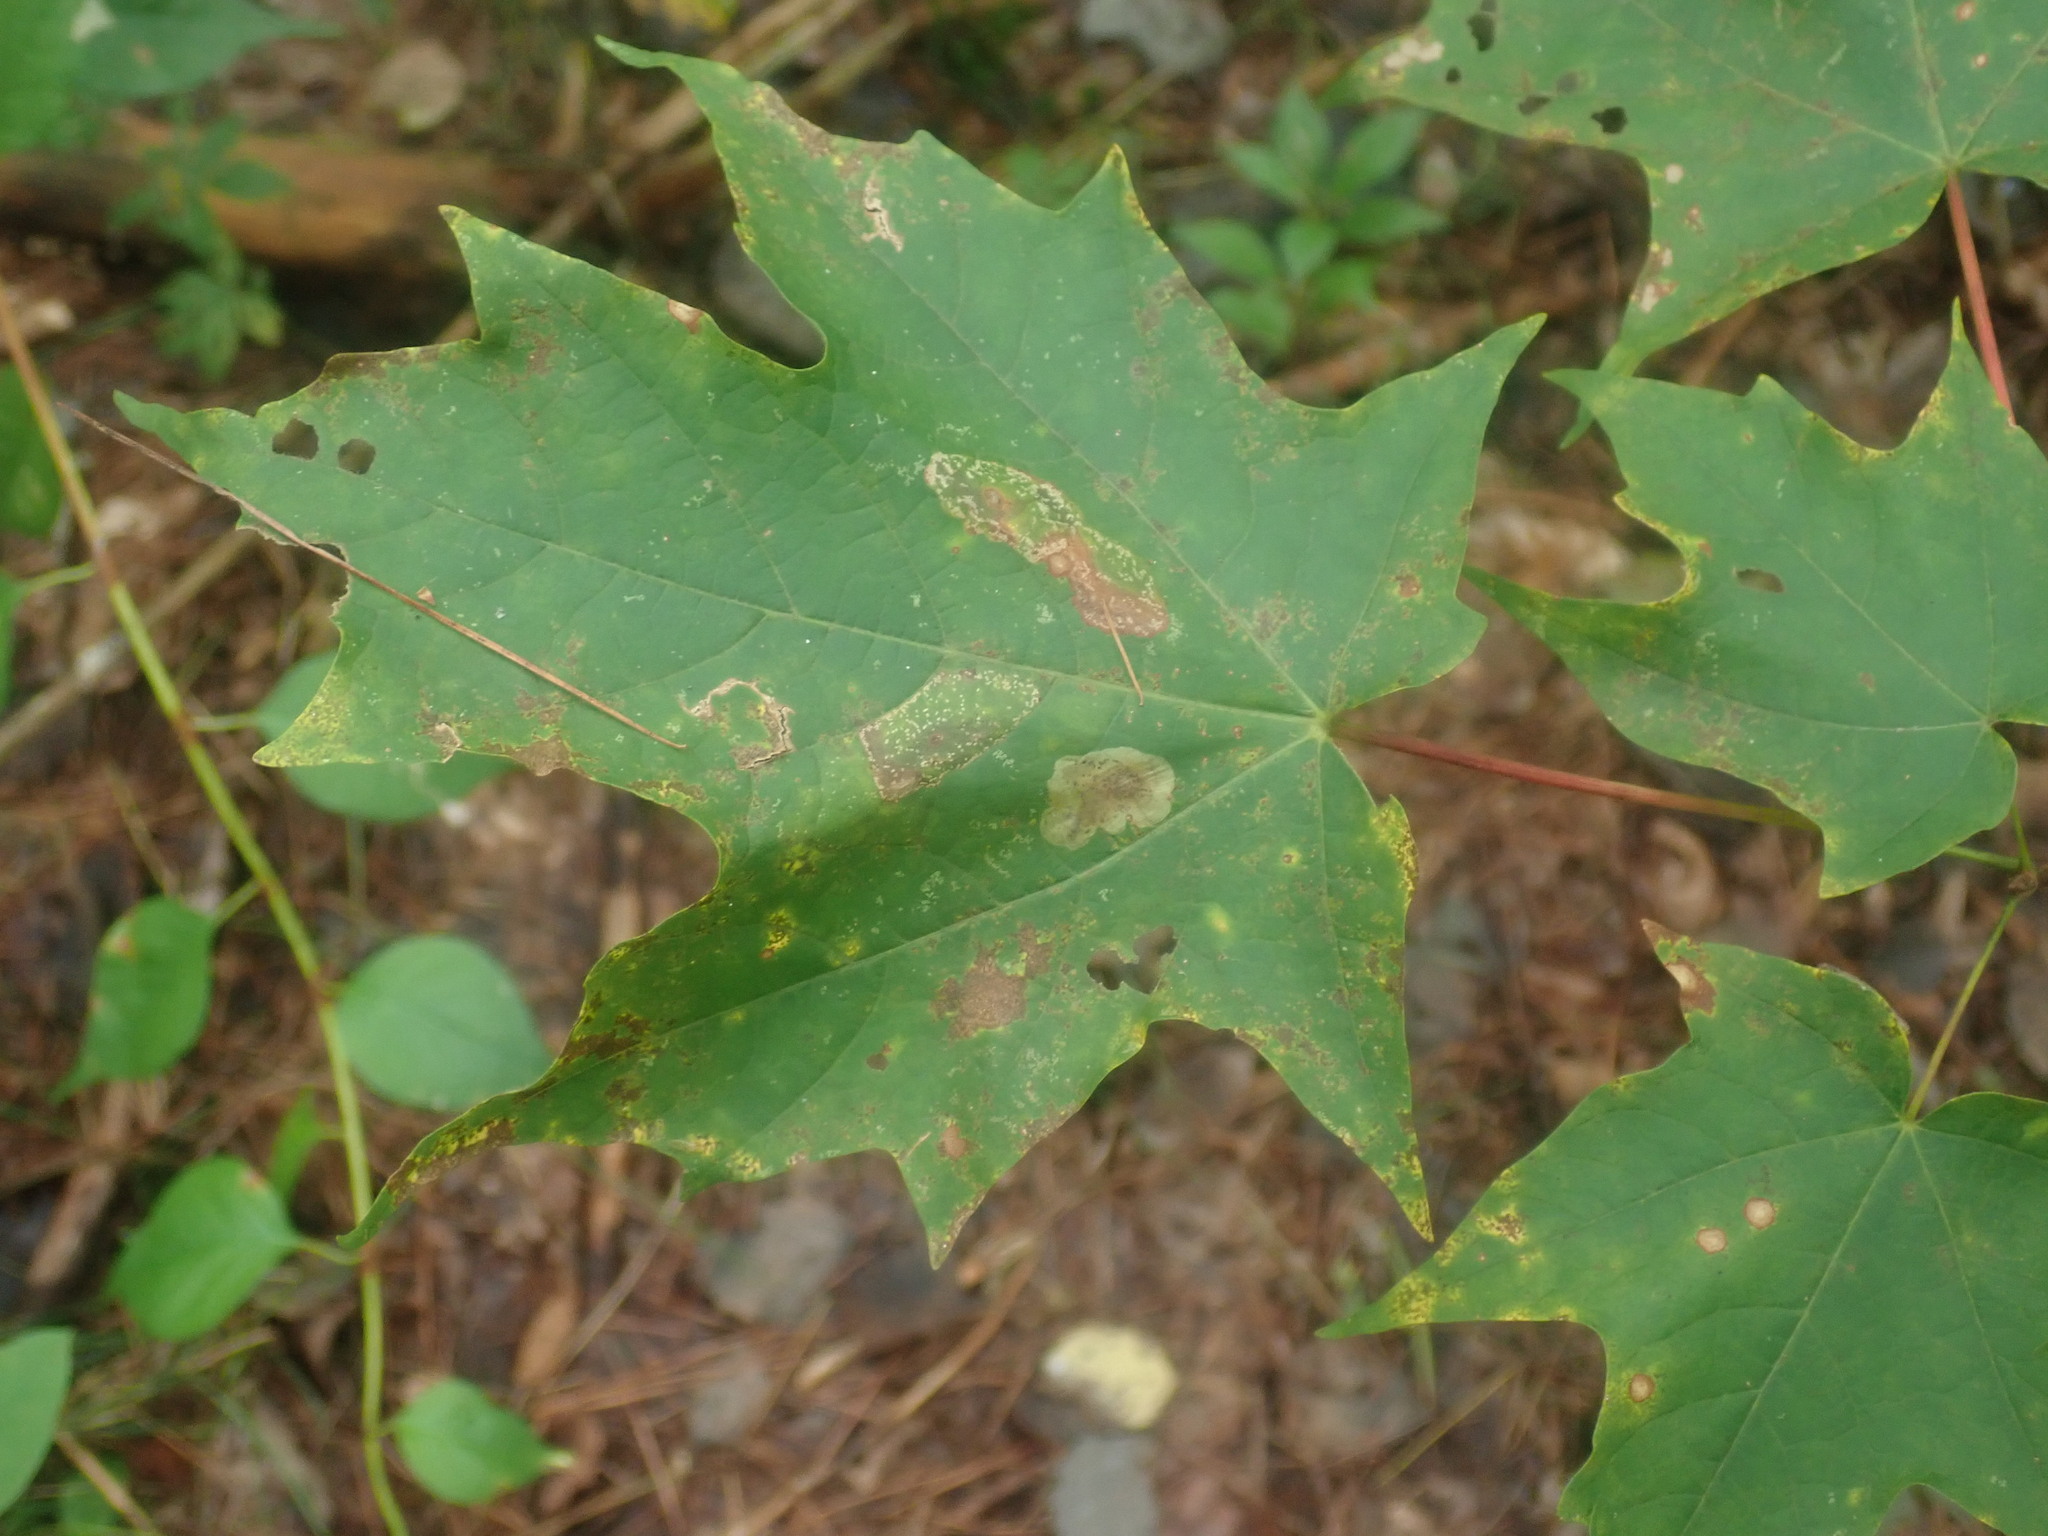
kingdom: Plantae
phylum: Tracheophyta
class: Magnoliopsida
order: Sapindales
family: Sapindaceae
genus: Acer
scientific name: Acer saccharum
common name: Sugar maple
